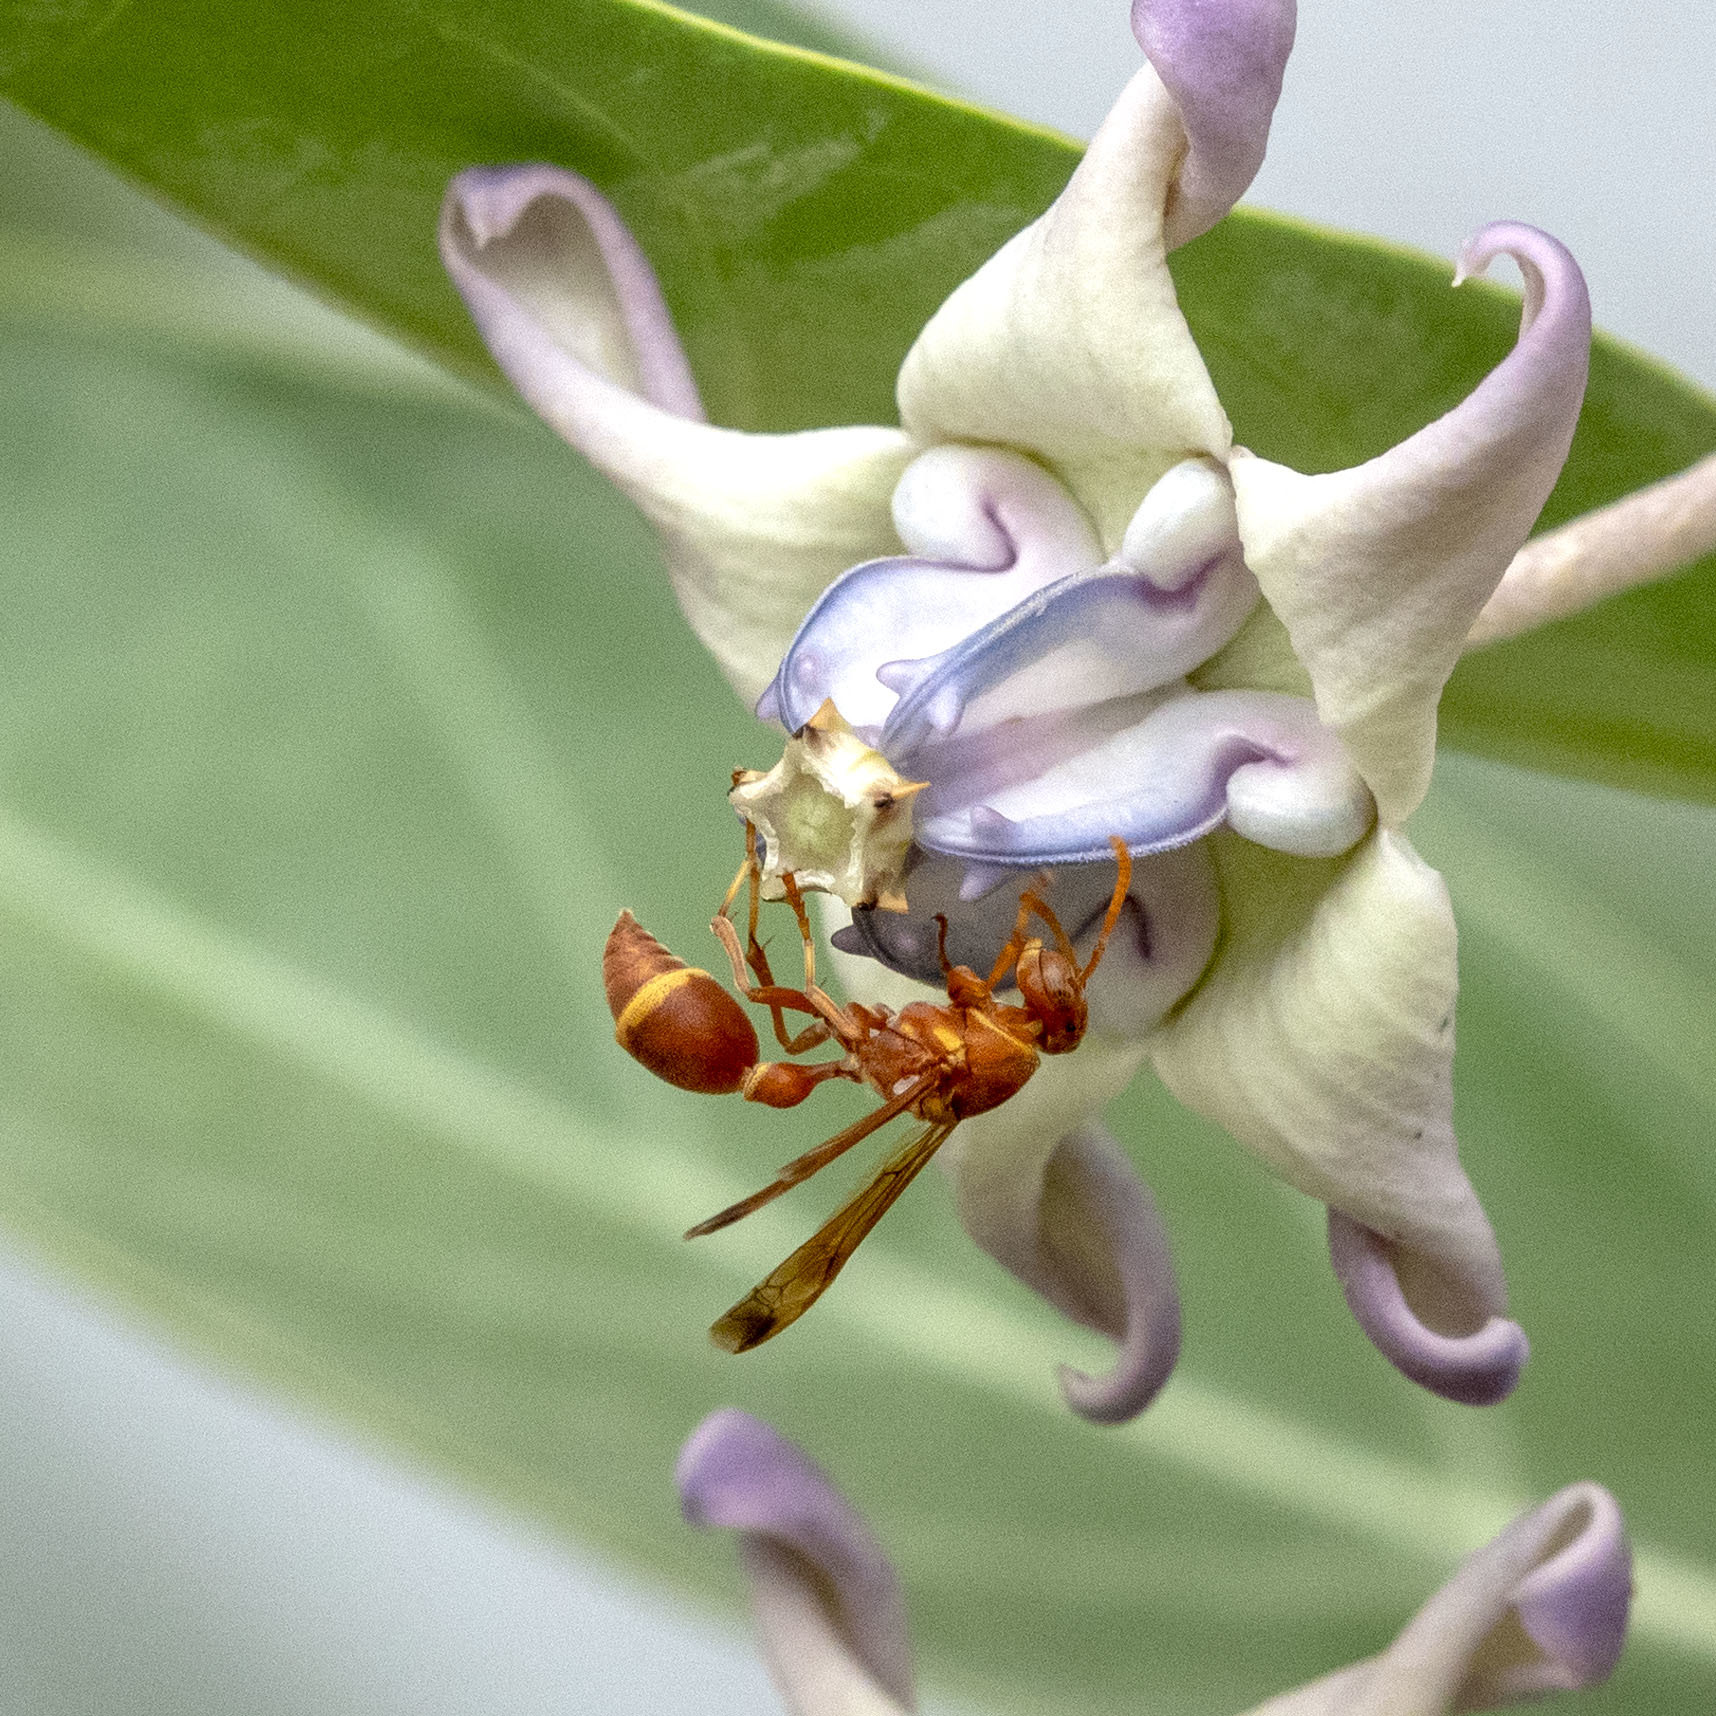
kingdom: Animalia
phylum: Arthropoda
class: Insecta
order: Hymenoptera
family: Vespidae
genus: Ropalidia
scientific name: Ropalidia marginata
